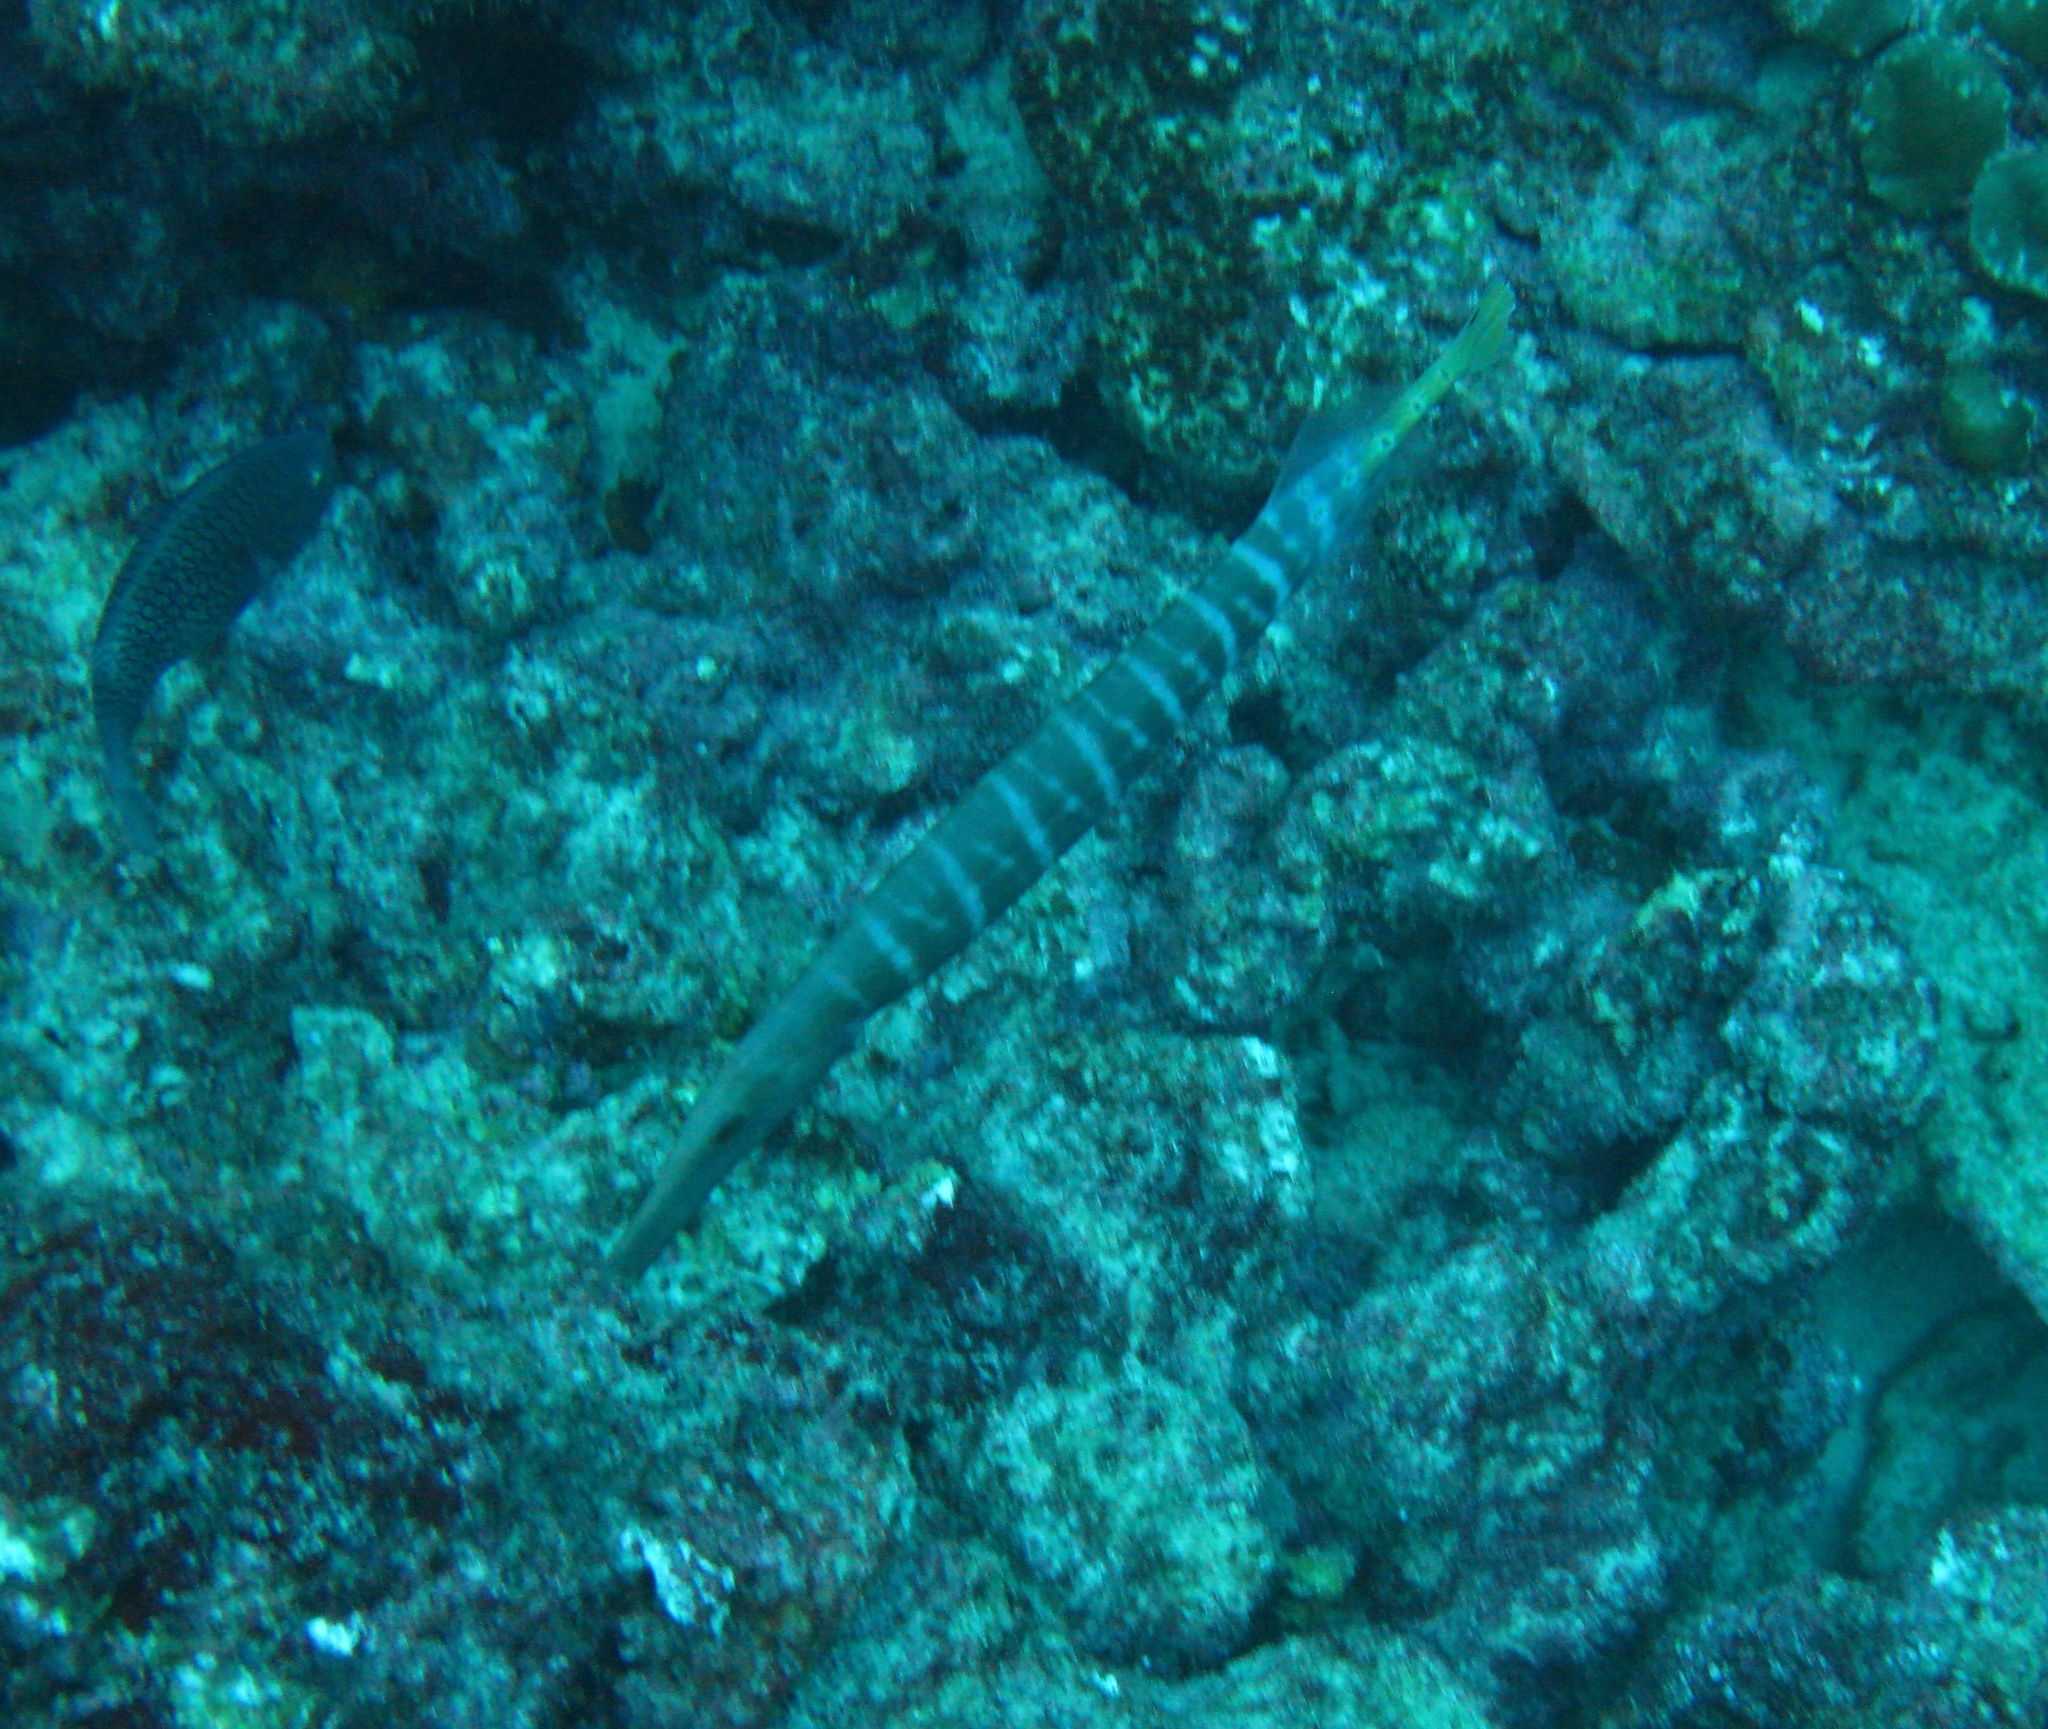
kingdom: Animalia
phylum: Chordata
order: Syngnathiformes
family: Aulostomidae
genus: Aulostomus
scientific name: Aulostomus chinensis
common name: Chinese trumpetfish
